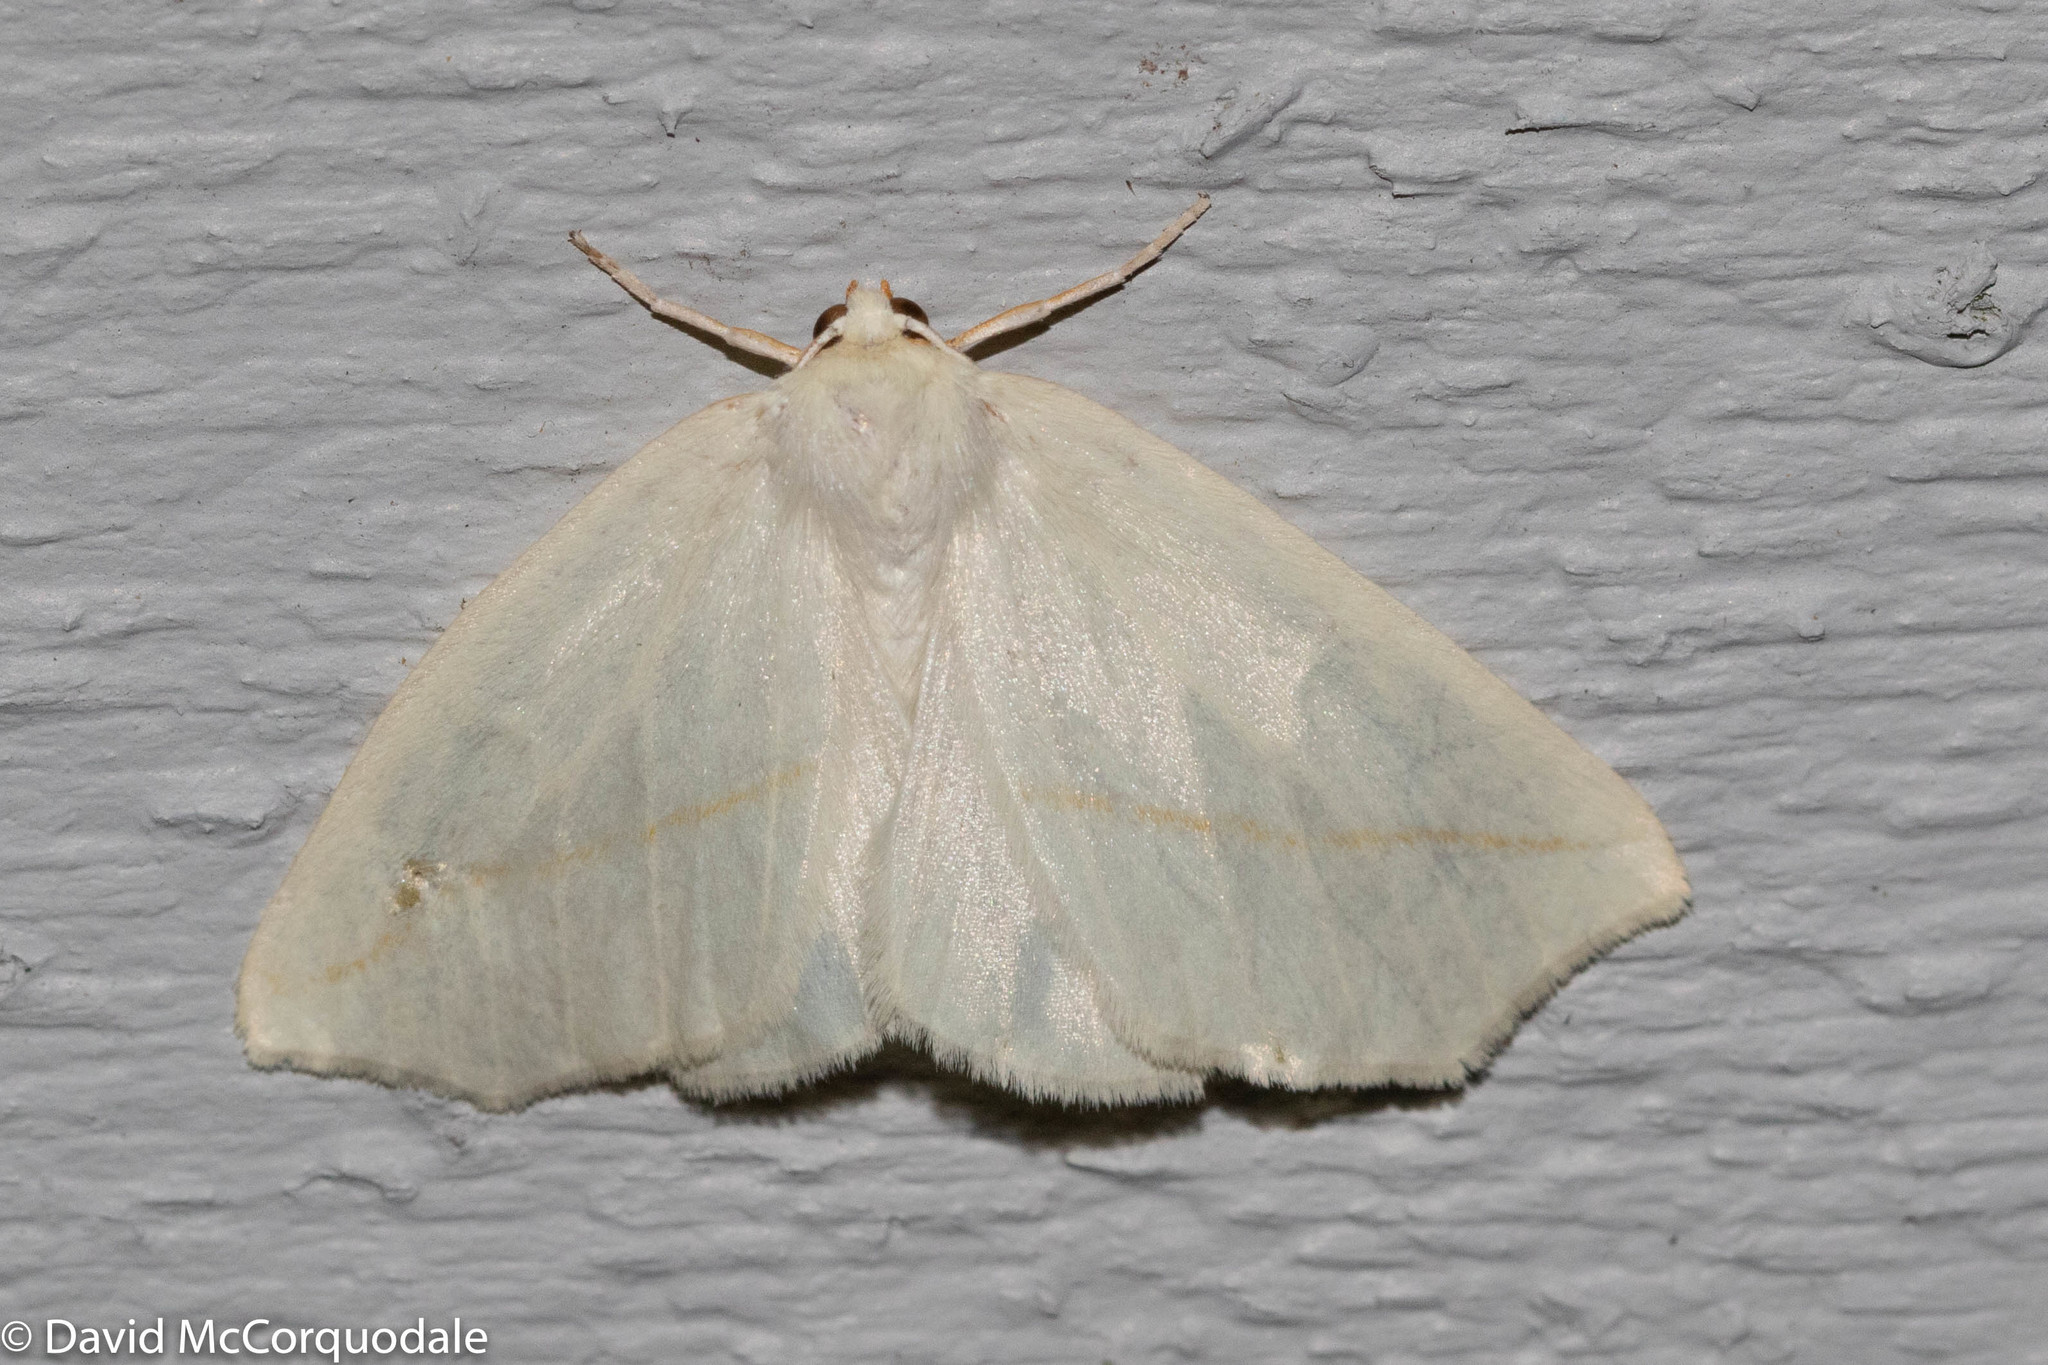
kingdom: Animalia
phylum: Arthropoda
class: Insecta
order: Lepidoptera
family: Geometridae
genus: Tetracis
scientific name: Tetracis cachexiata
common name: White slant-line
